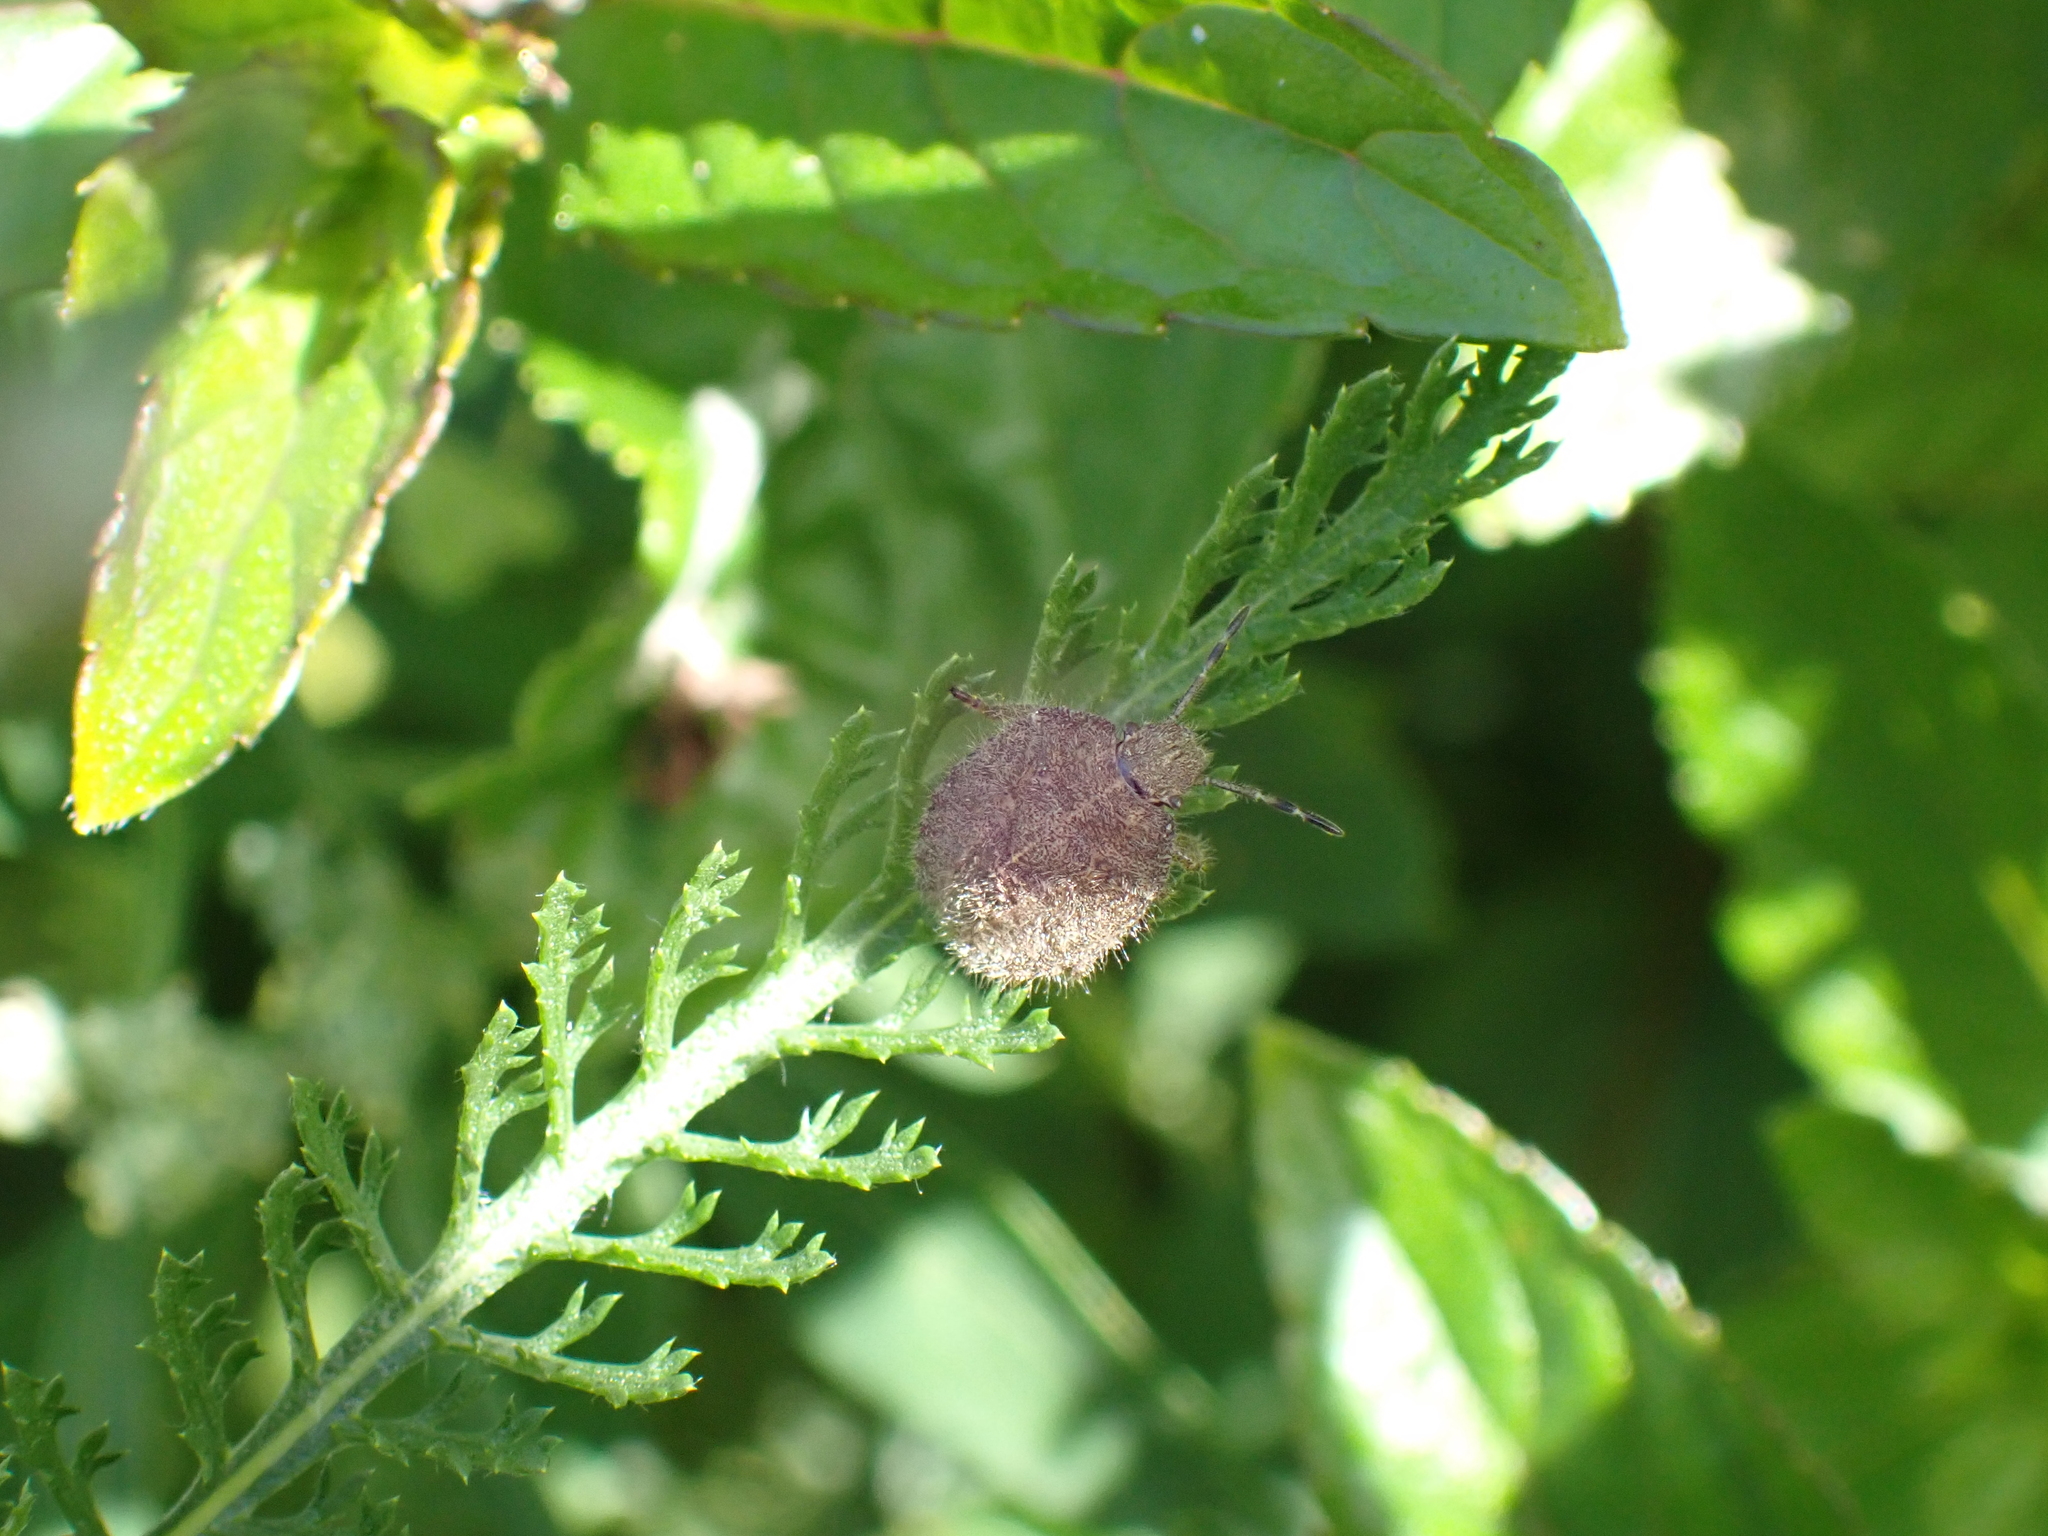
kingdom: Animalia
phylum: Arthropoda
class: Insecta
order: Hemiptera
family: Pentatomidae
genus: Dolycoris
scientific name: Dolycoris baccarum
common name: Sloe bug
